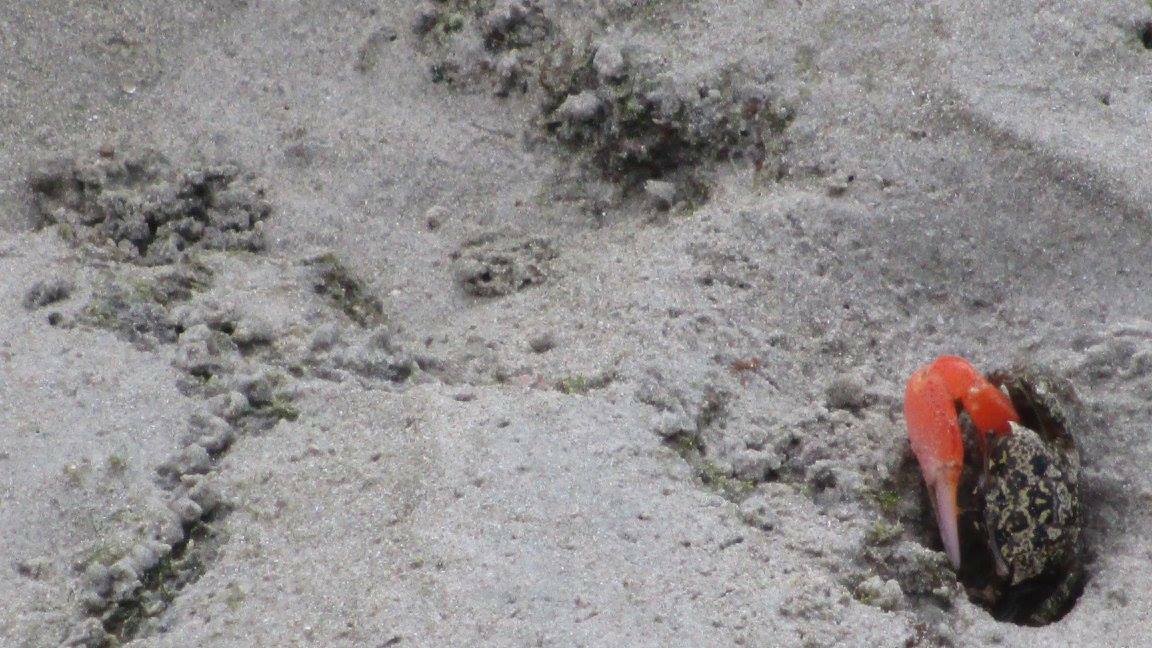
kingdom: Animalia
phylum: Arthropoda
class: Malacostraca
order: Decapoda
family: Ocypodidae
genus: Austruca
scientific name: Austruca annulipes
